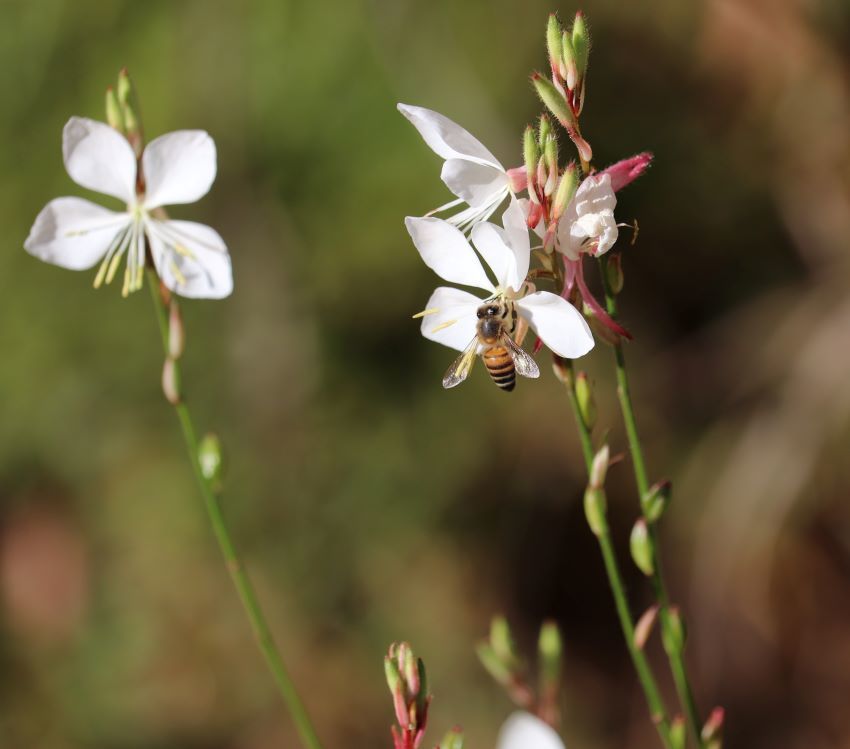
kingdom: Plantae
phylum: Tracheophyta
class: Magnoliopsida
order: Myrtales
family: Onagraceae
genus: Oenothera
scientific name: Oenothera lindheimeri
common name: Lindheimer's beeblossom
